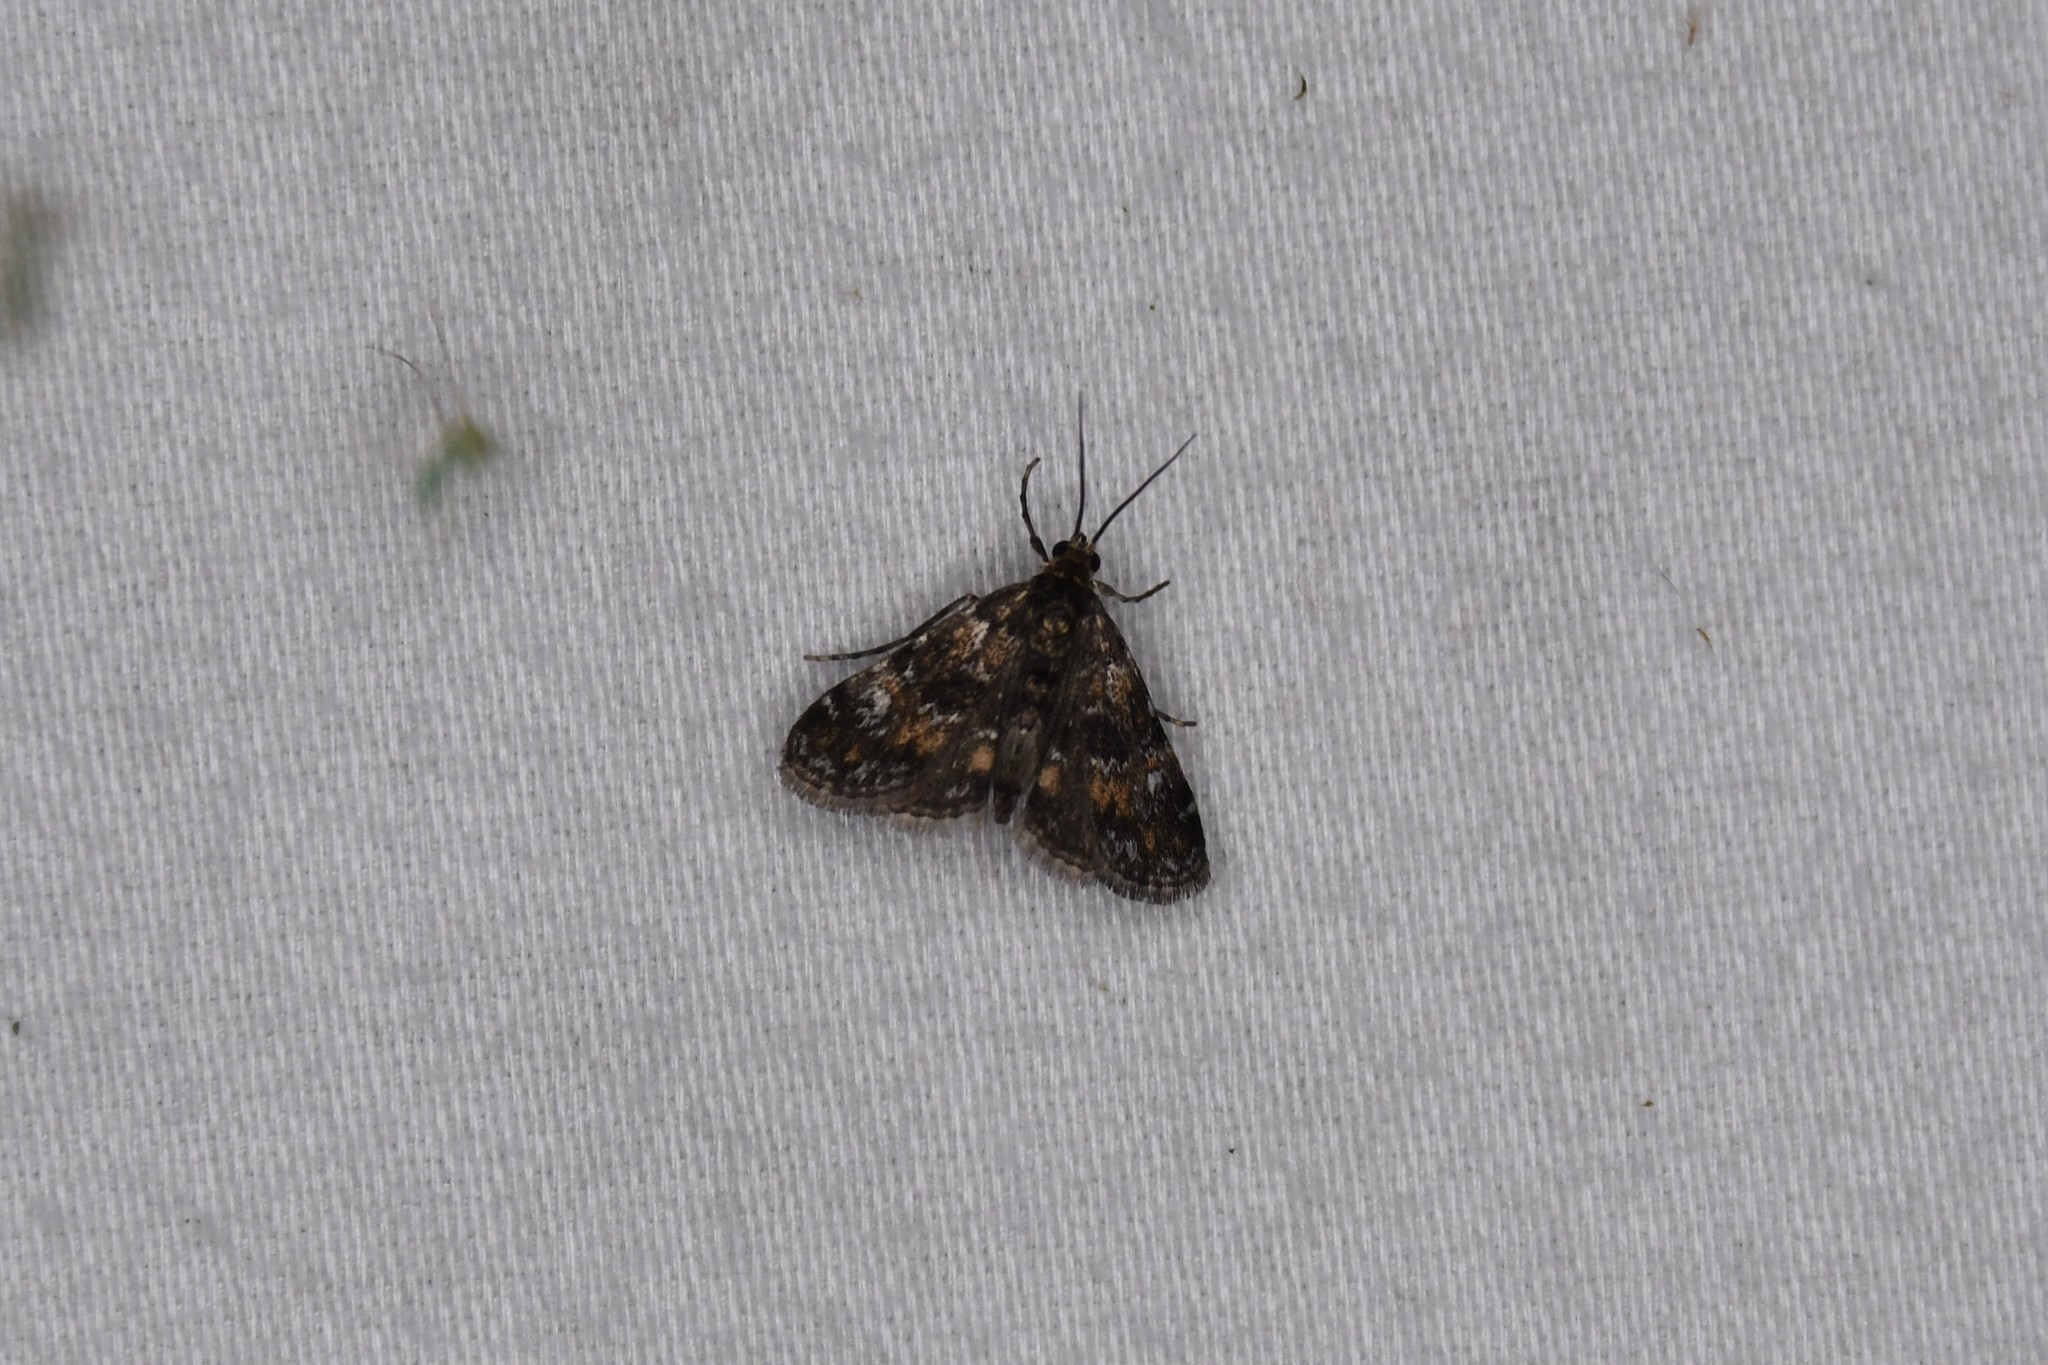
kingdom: Animalia
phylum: Arthropoda
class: Insecta
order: Lepidoptera
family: Crambidae
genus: Elophila
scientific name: Elophila obliteralis
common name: Waterlily leafcutter moth
